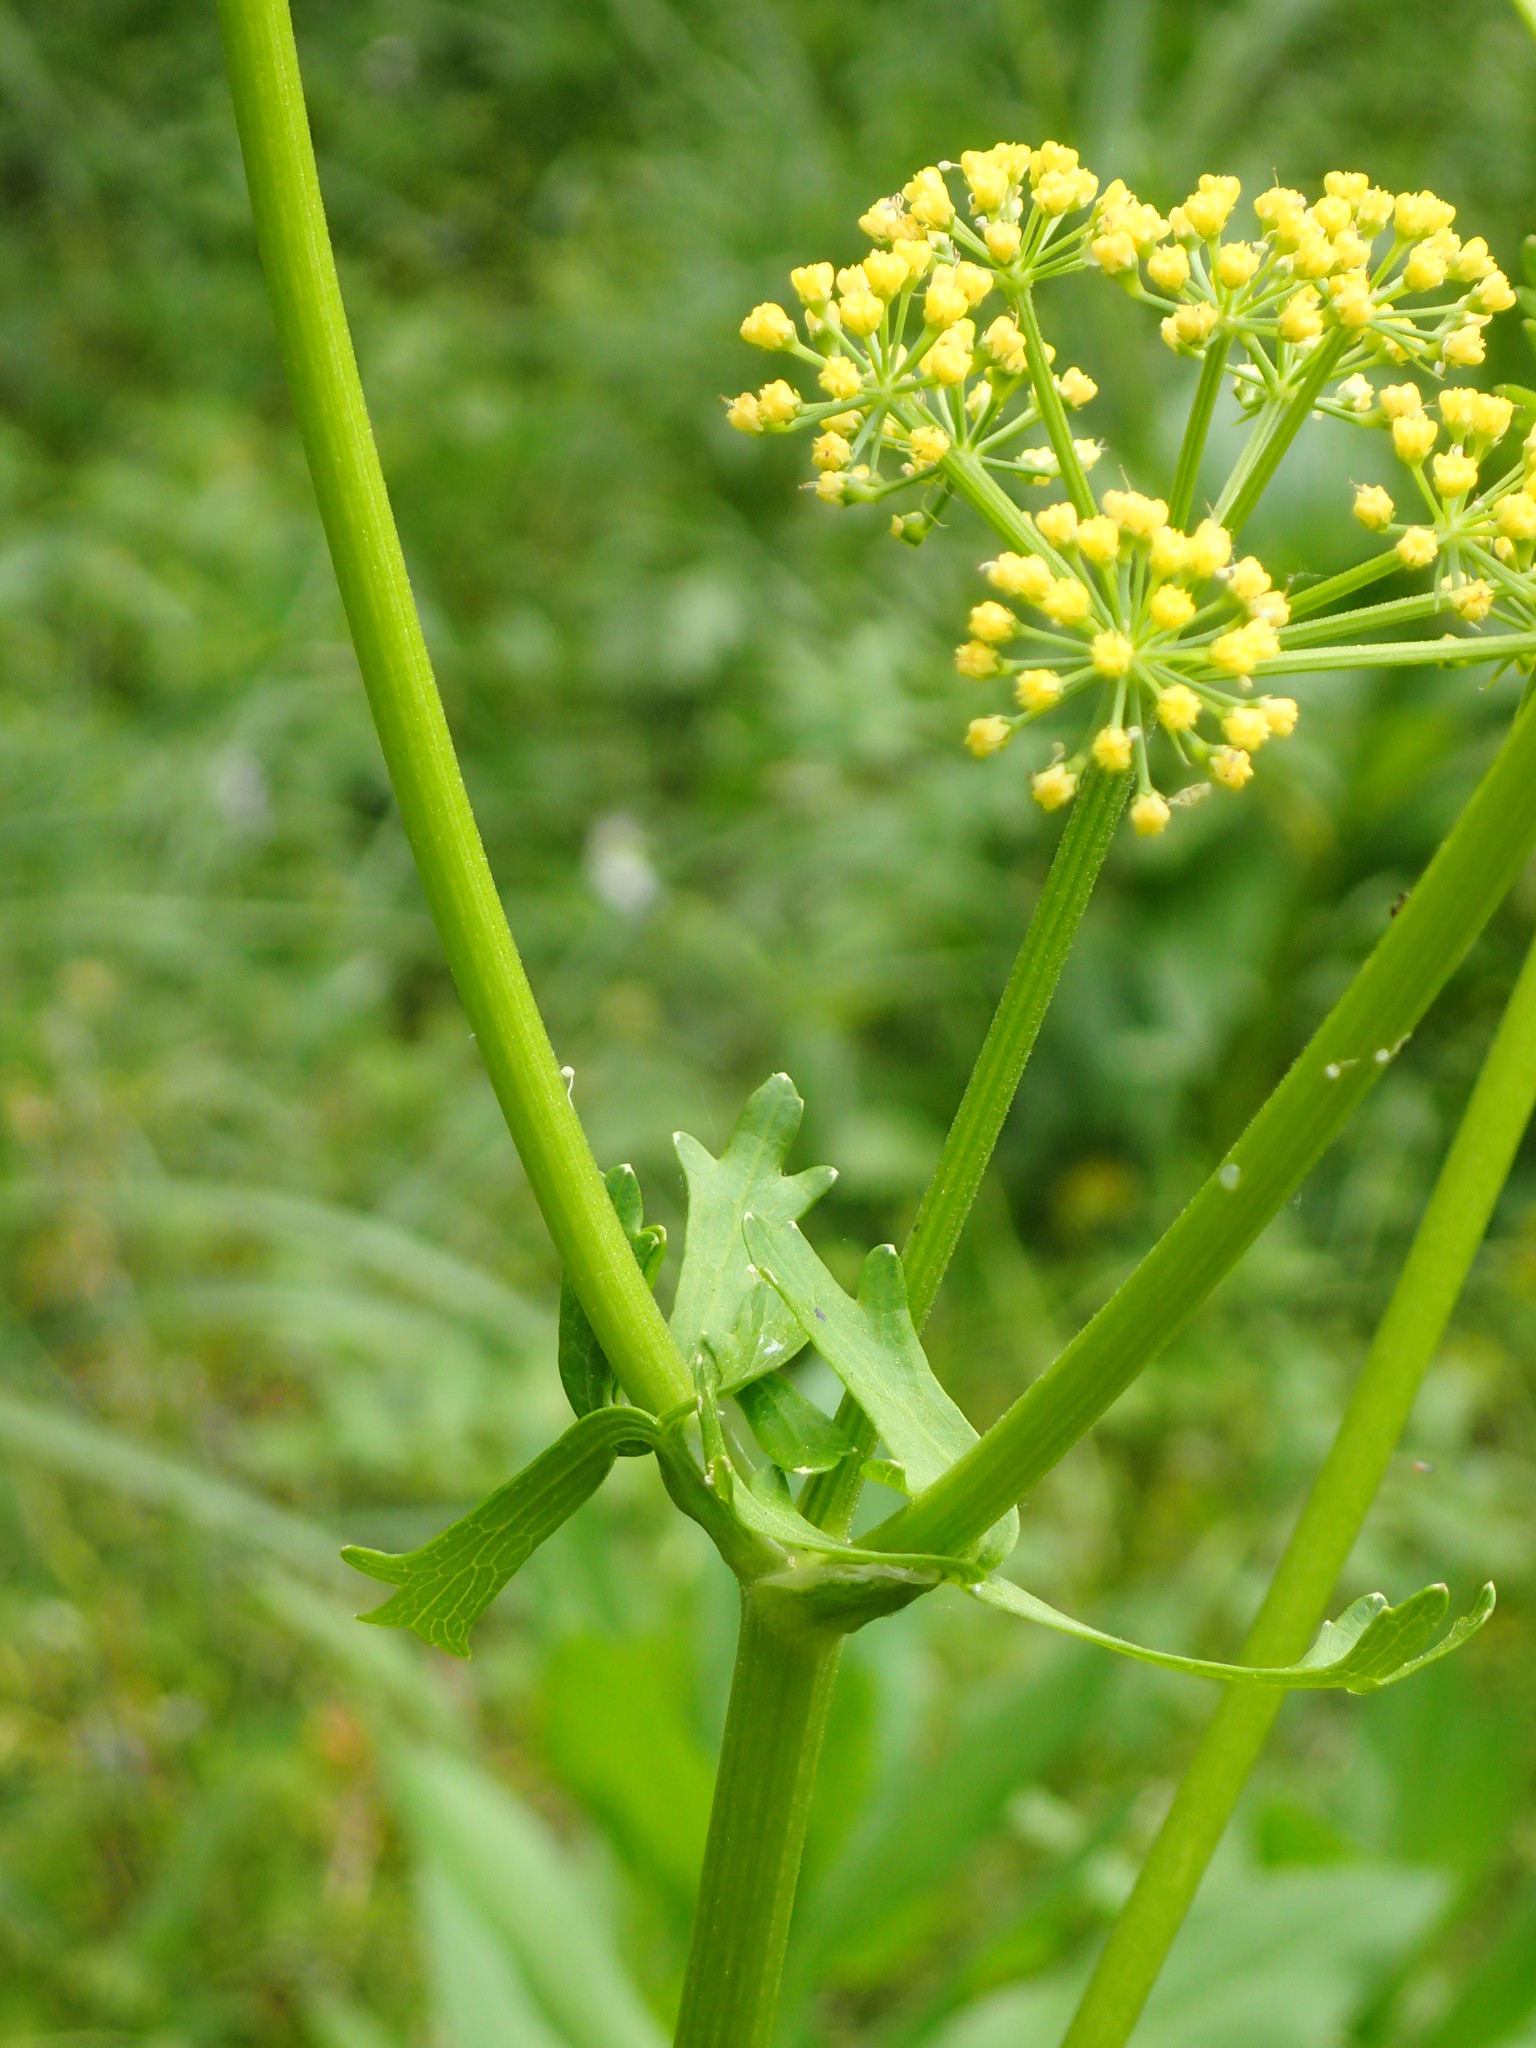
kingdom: Plantae
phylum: Tracheophyta
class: Magnoliopsida
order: Apiales
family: Apiaceae
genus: Polytaenia
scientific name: Polytaenia texana
